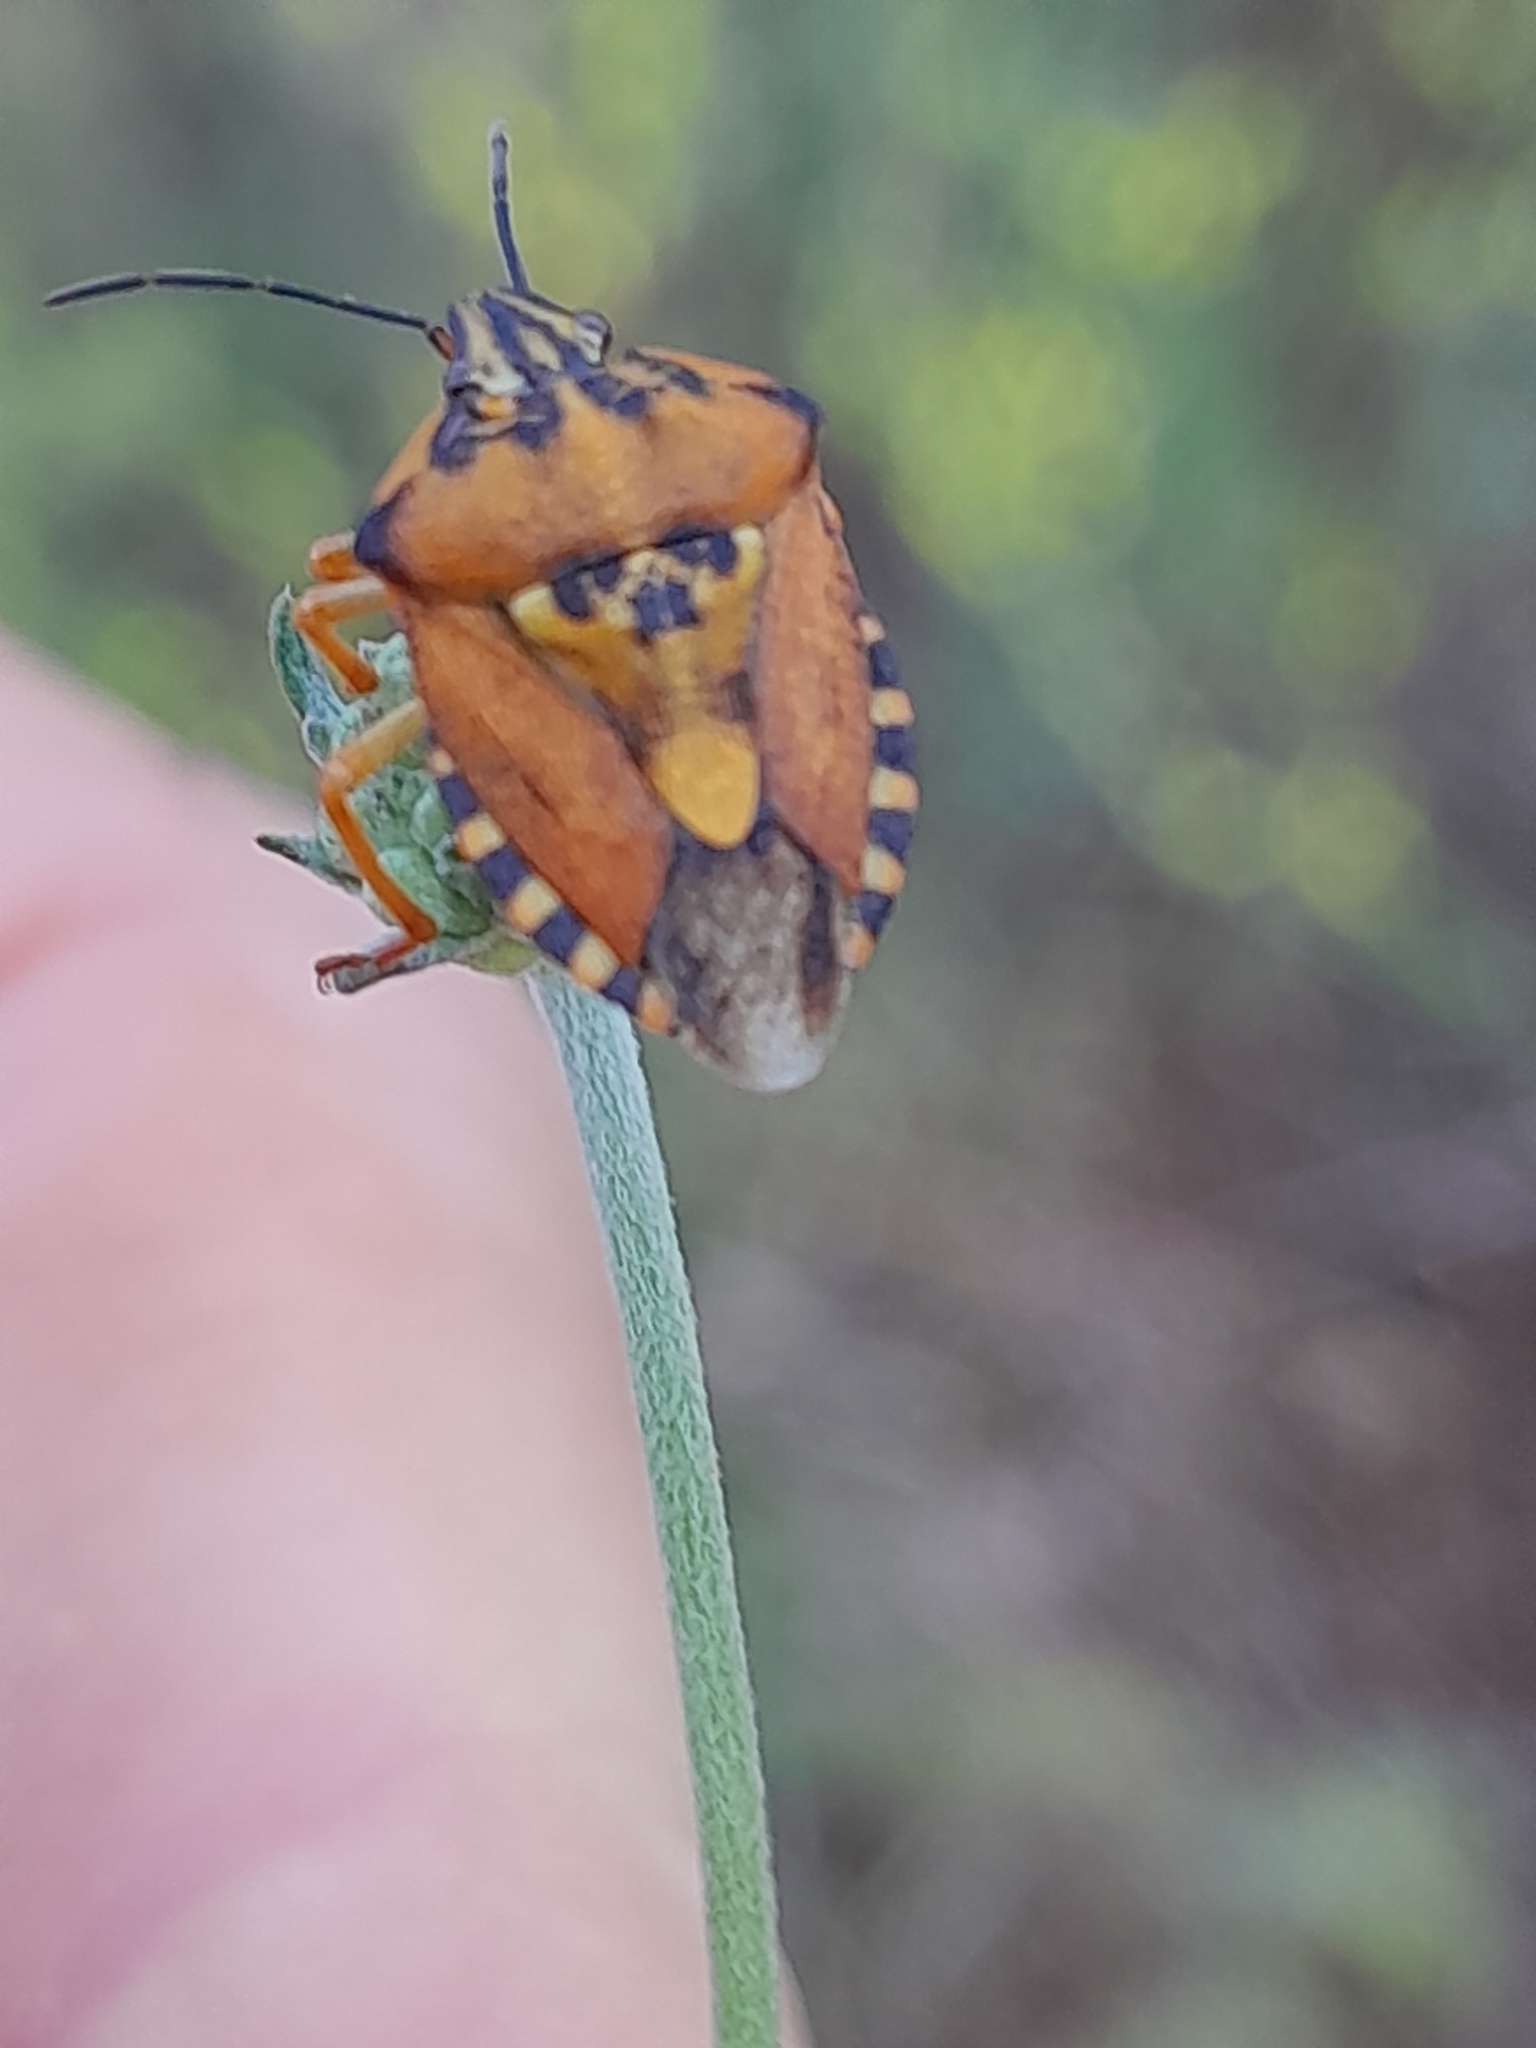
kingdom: Animalia
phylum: Arthropoda
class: Insecta
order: Hemiptera
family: Pentatomidae
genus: Carpocoris
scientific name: Carpocoris purpureipennis
